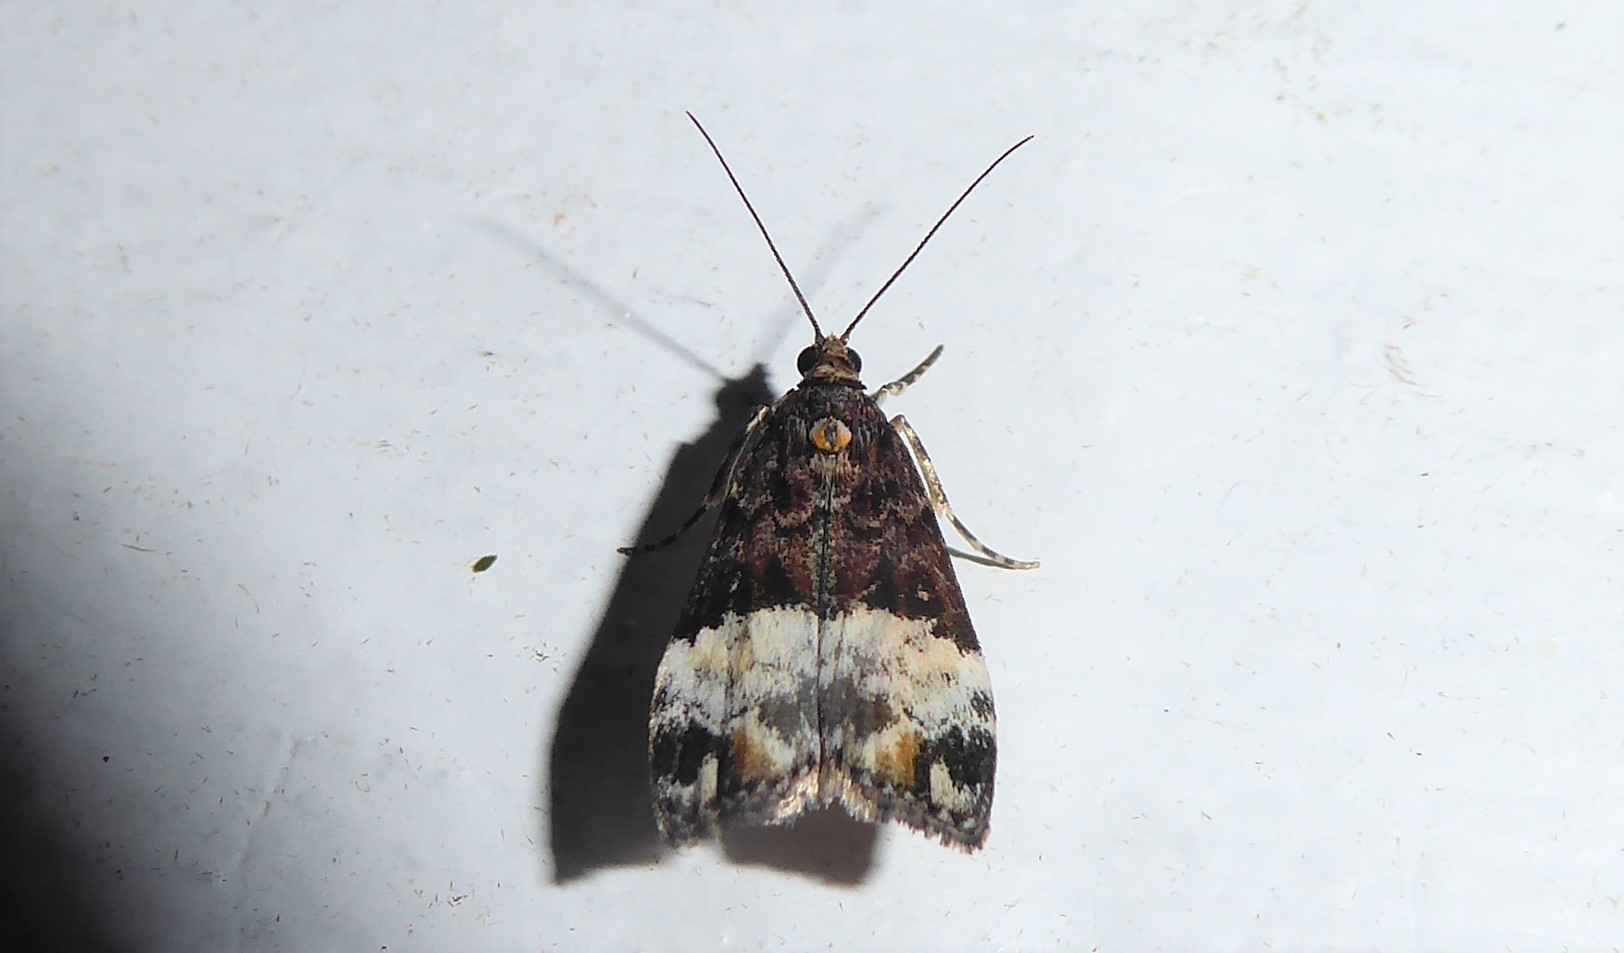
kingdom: Animalia
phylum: Arthropoda
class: Insecta
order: Lepidoptera
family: Crambidae
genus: Scoparia
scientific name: Scoparia minusculalis
